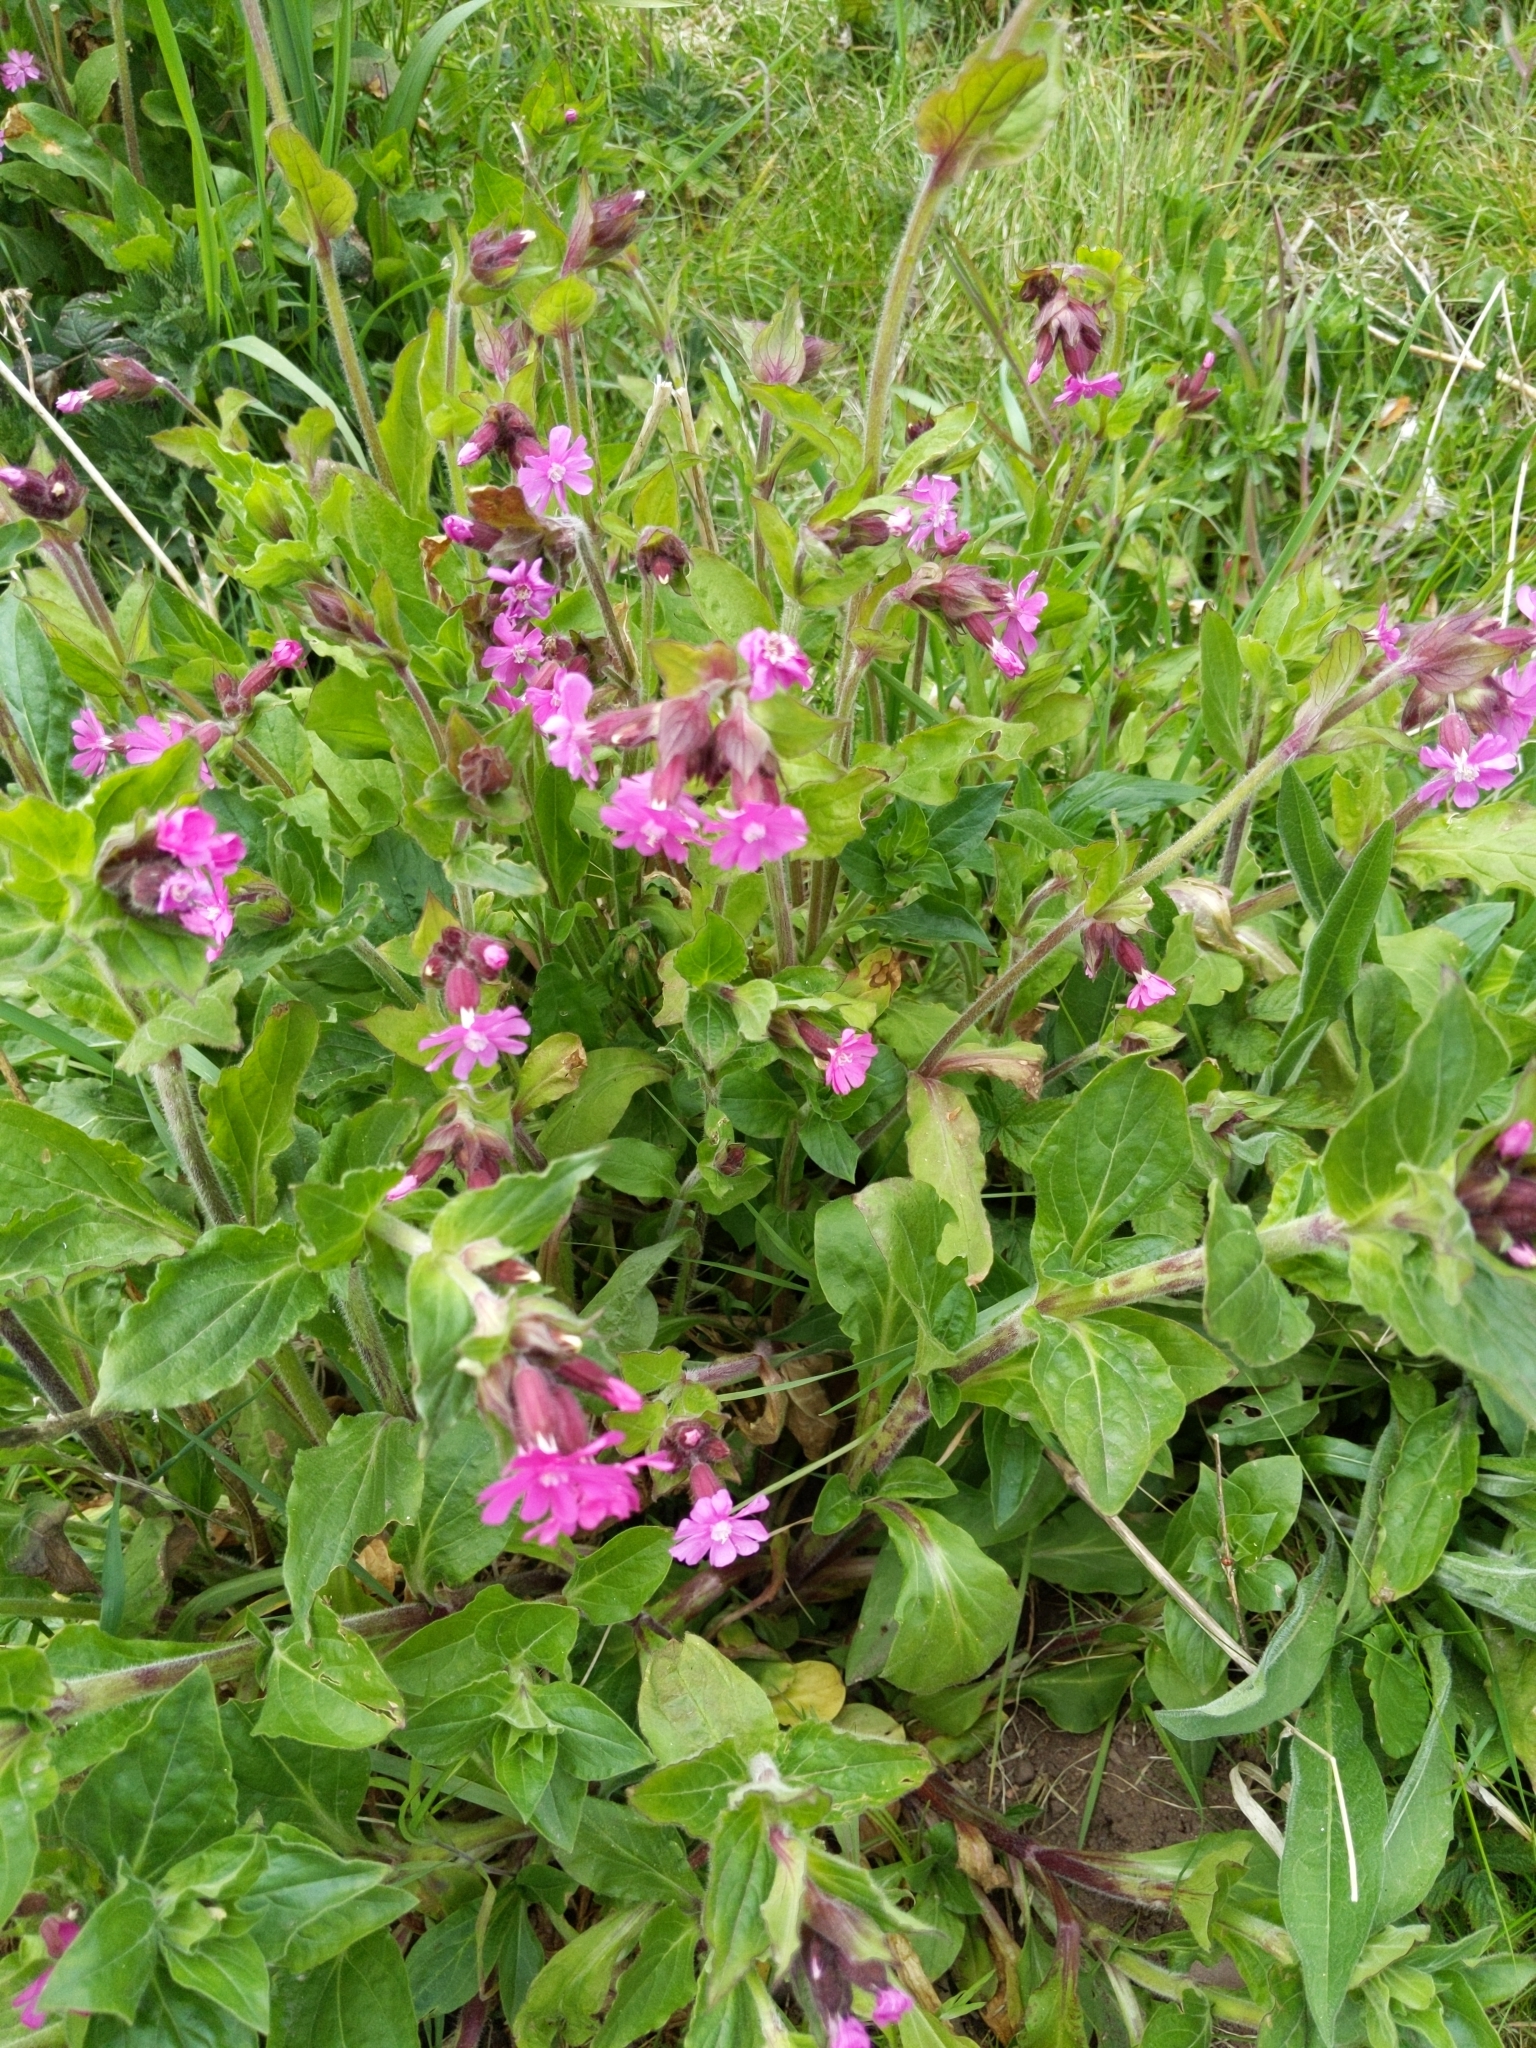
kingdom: Plantae
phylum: Tracheophyta
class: Magnoliopsida
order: Caryophyllales
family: Caryophyllaceae
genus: Silene
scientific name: Silene dioica
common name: Red campion
